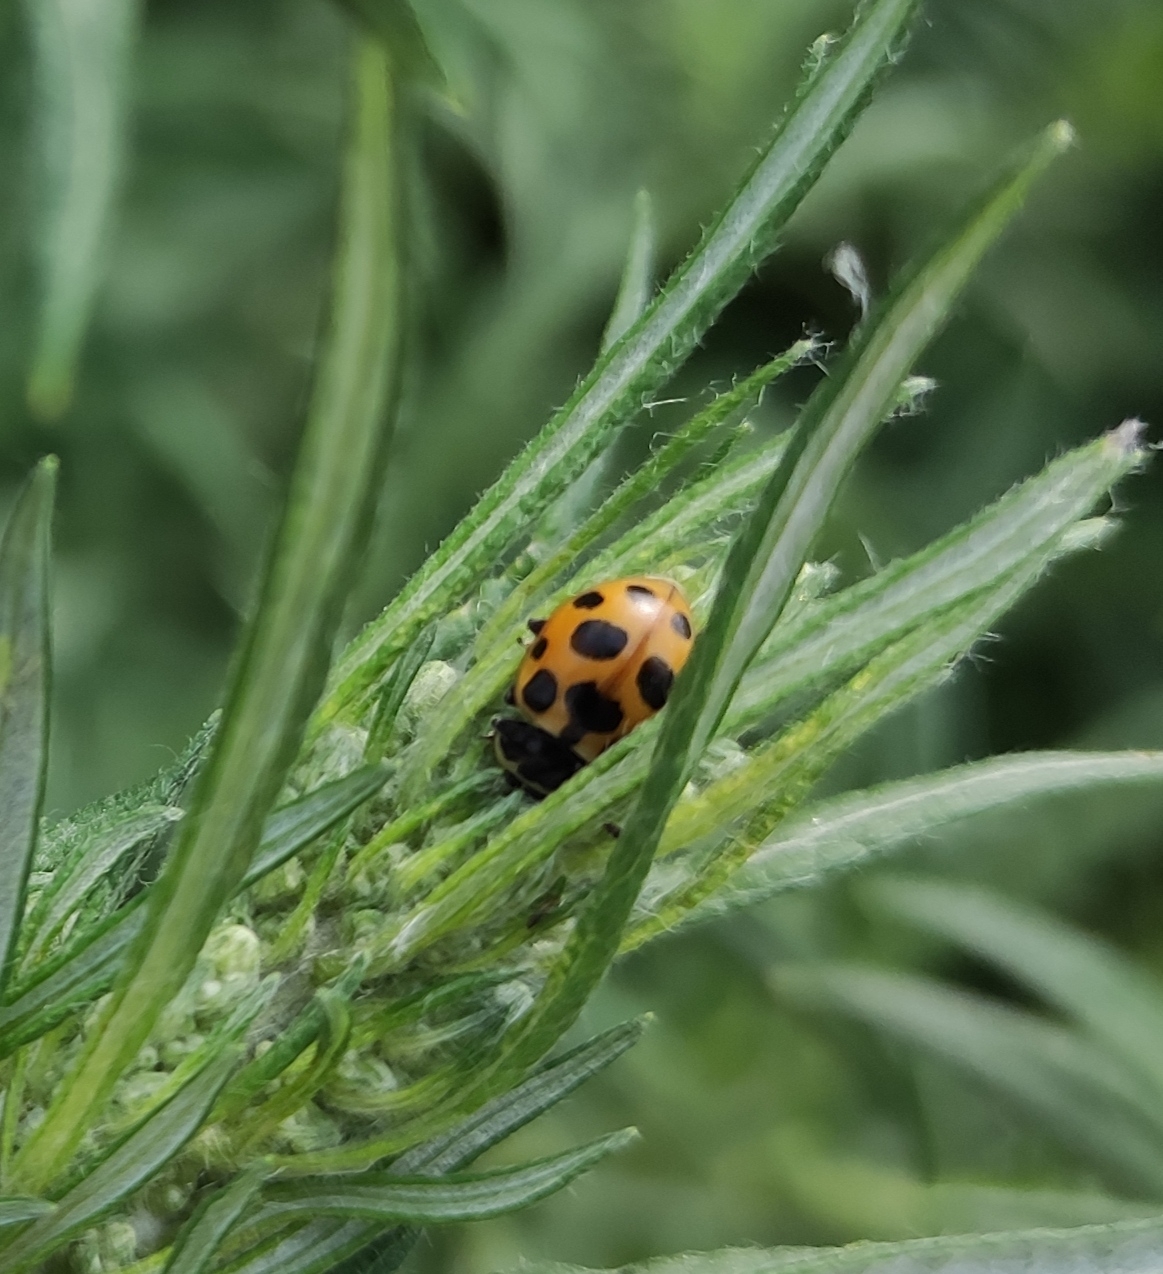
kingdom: Animalia
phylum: Arthropoda
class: Insecta
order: Coleoptera
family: Coccinellidae
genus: Ceratomegilla
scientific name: Ceratomegilla notata
